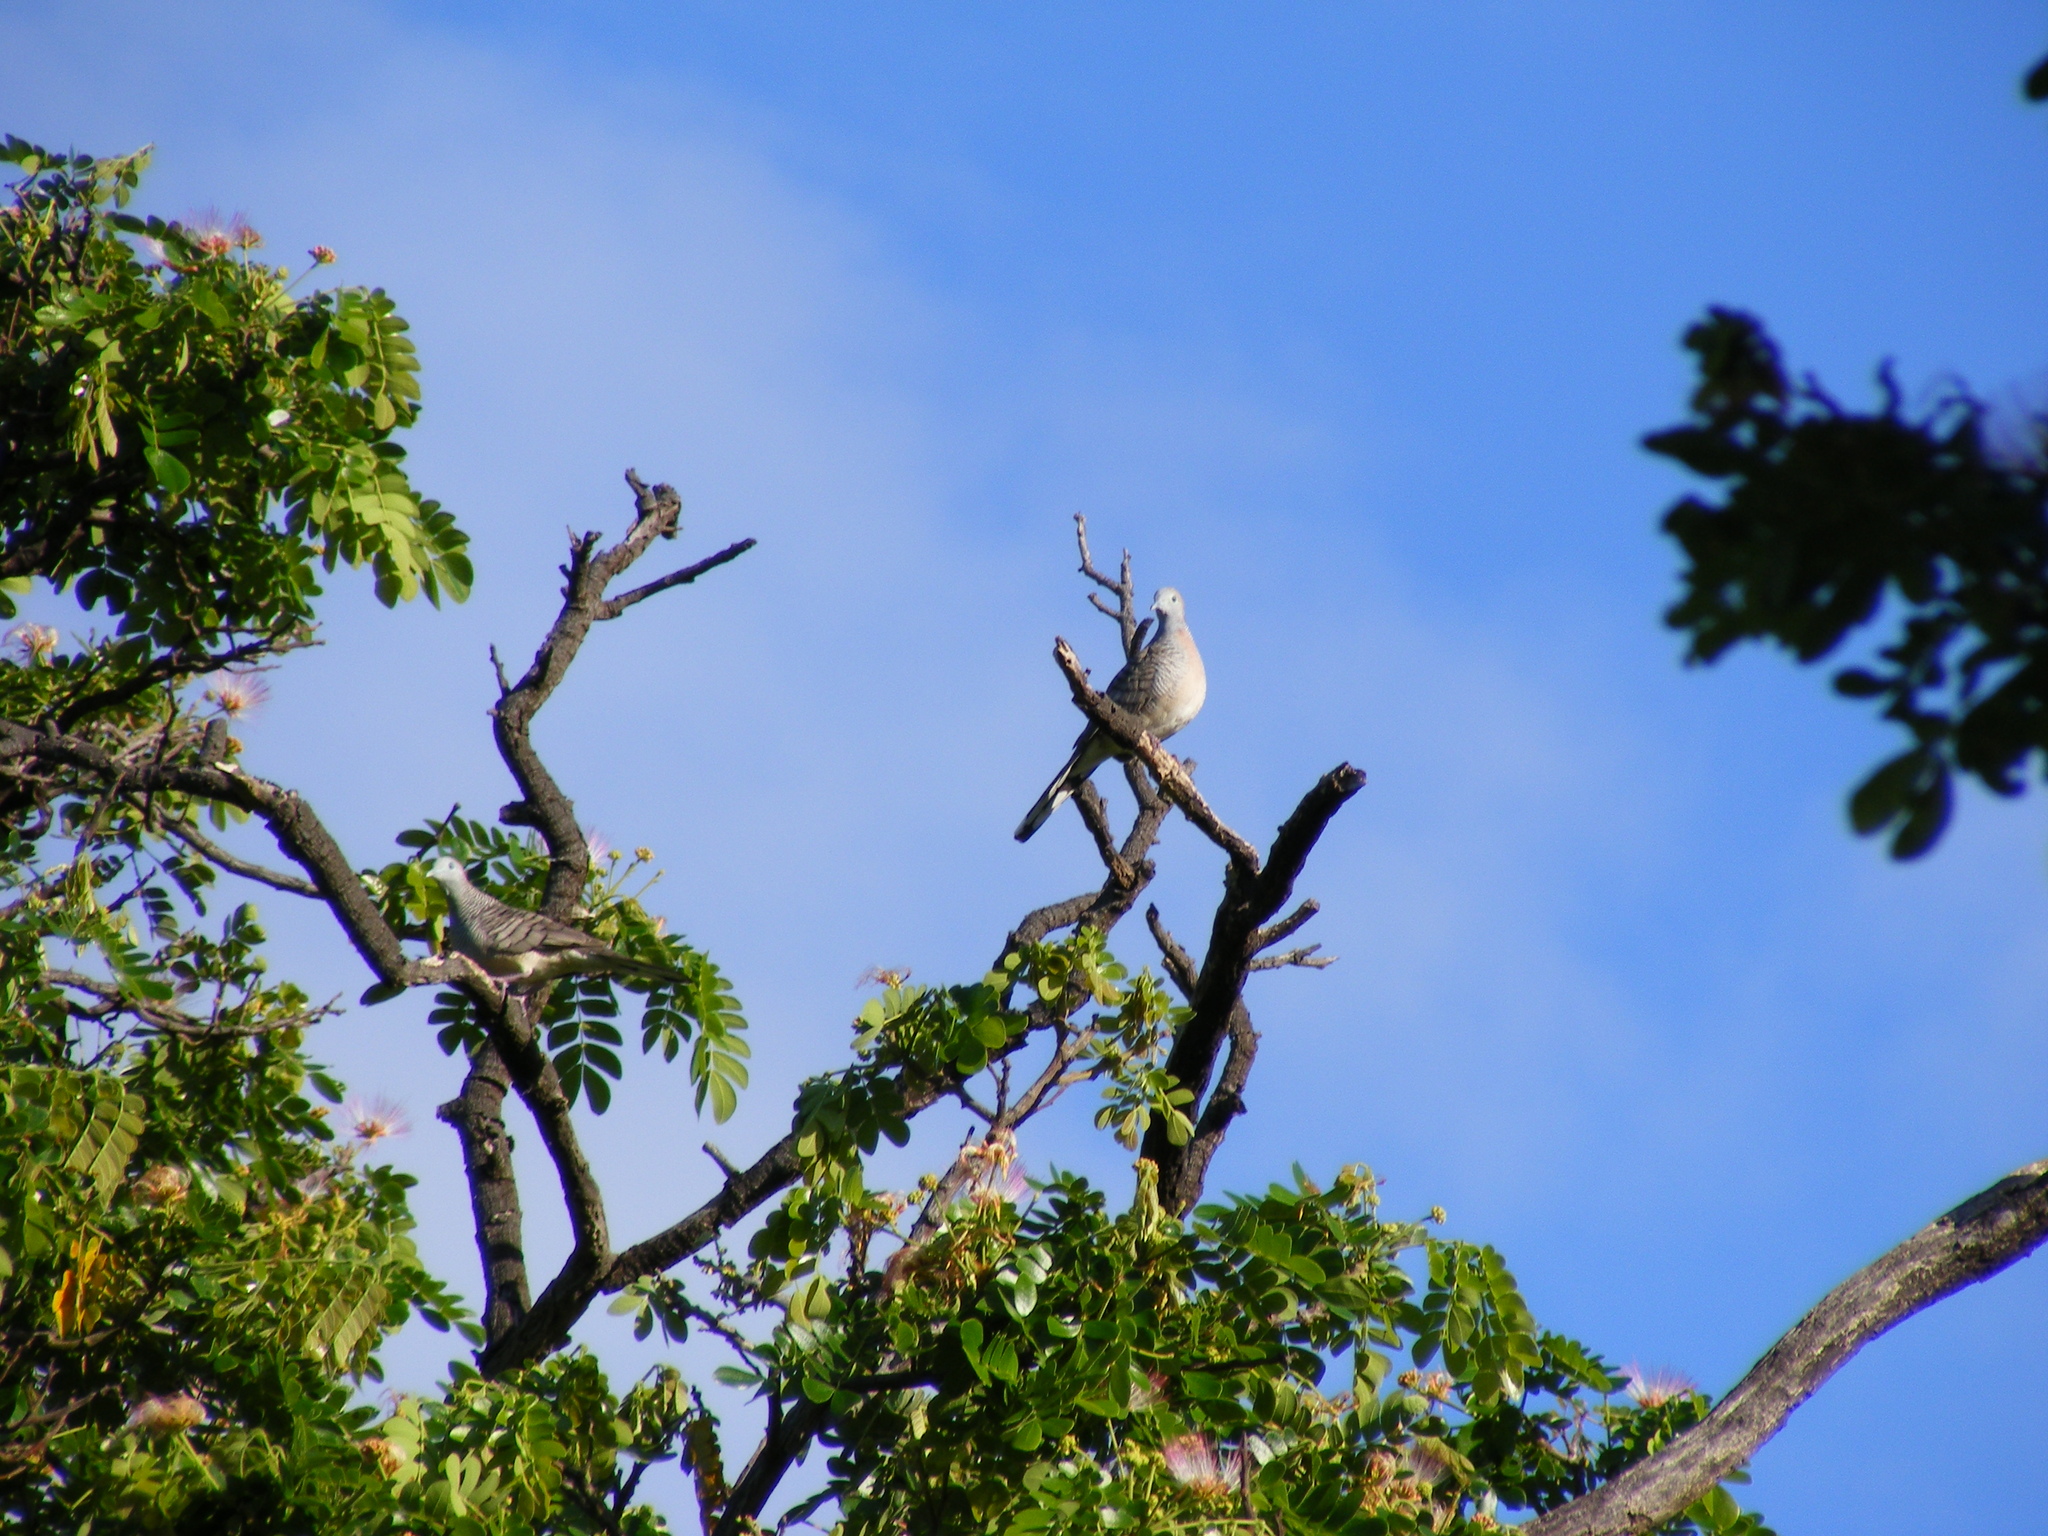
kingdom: Animalia
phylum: Chordata
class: Aves
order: Columbiformes
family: Columbidae
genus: Geopelia
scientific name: Geopelia striata
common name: Zebra dove
